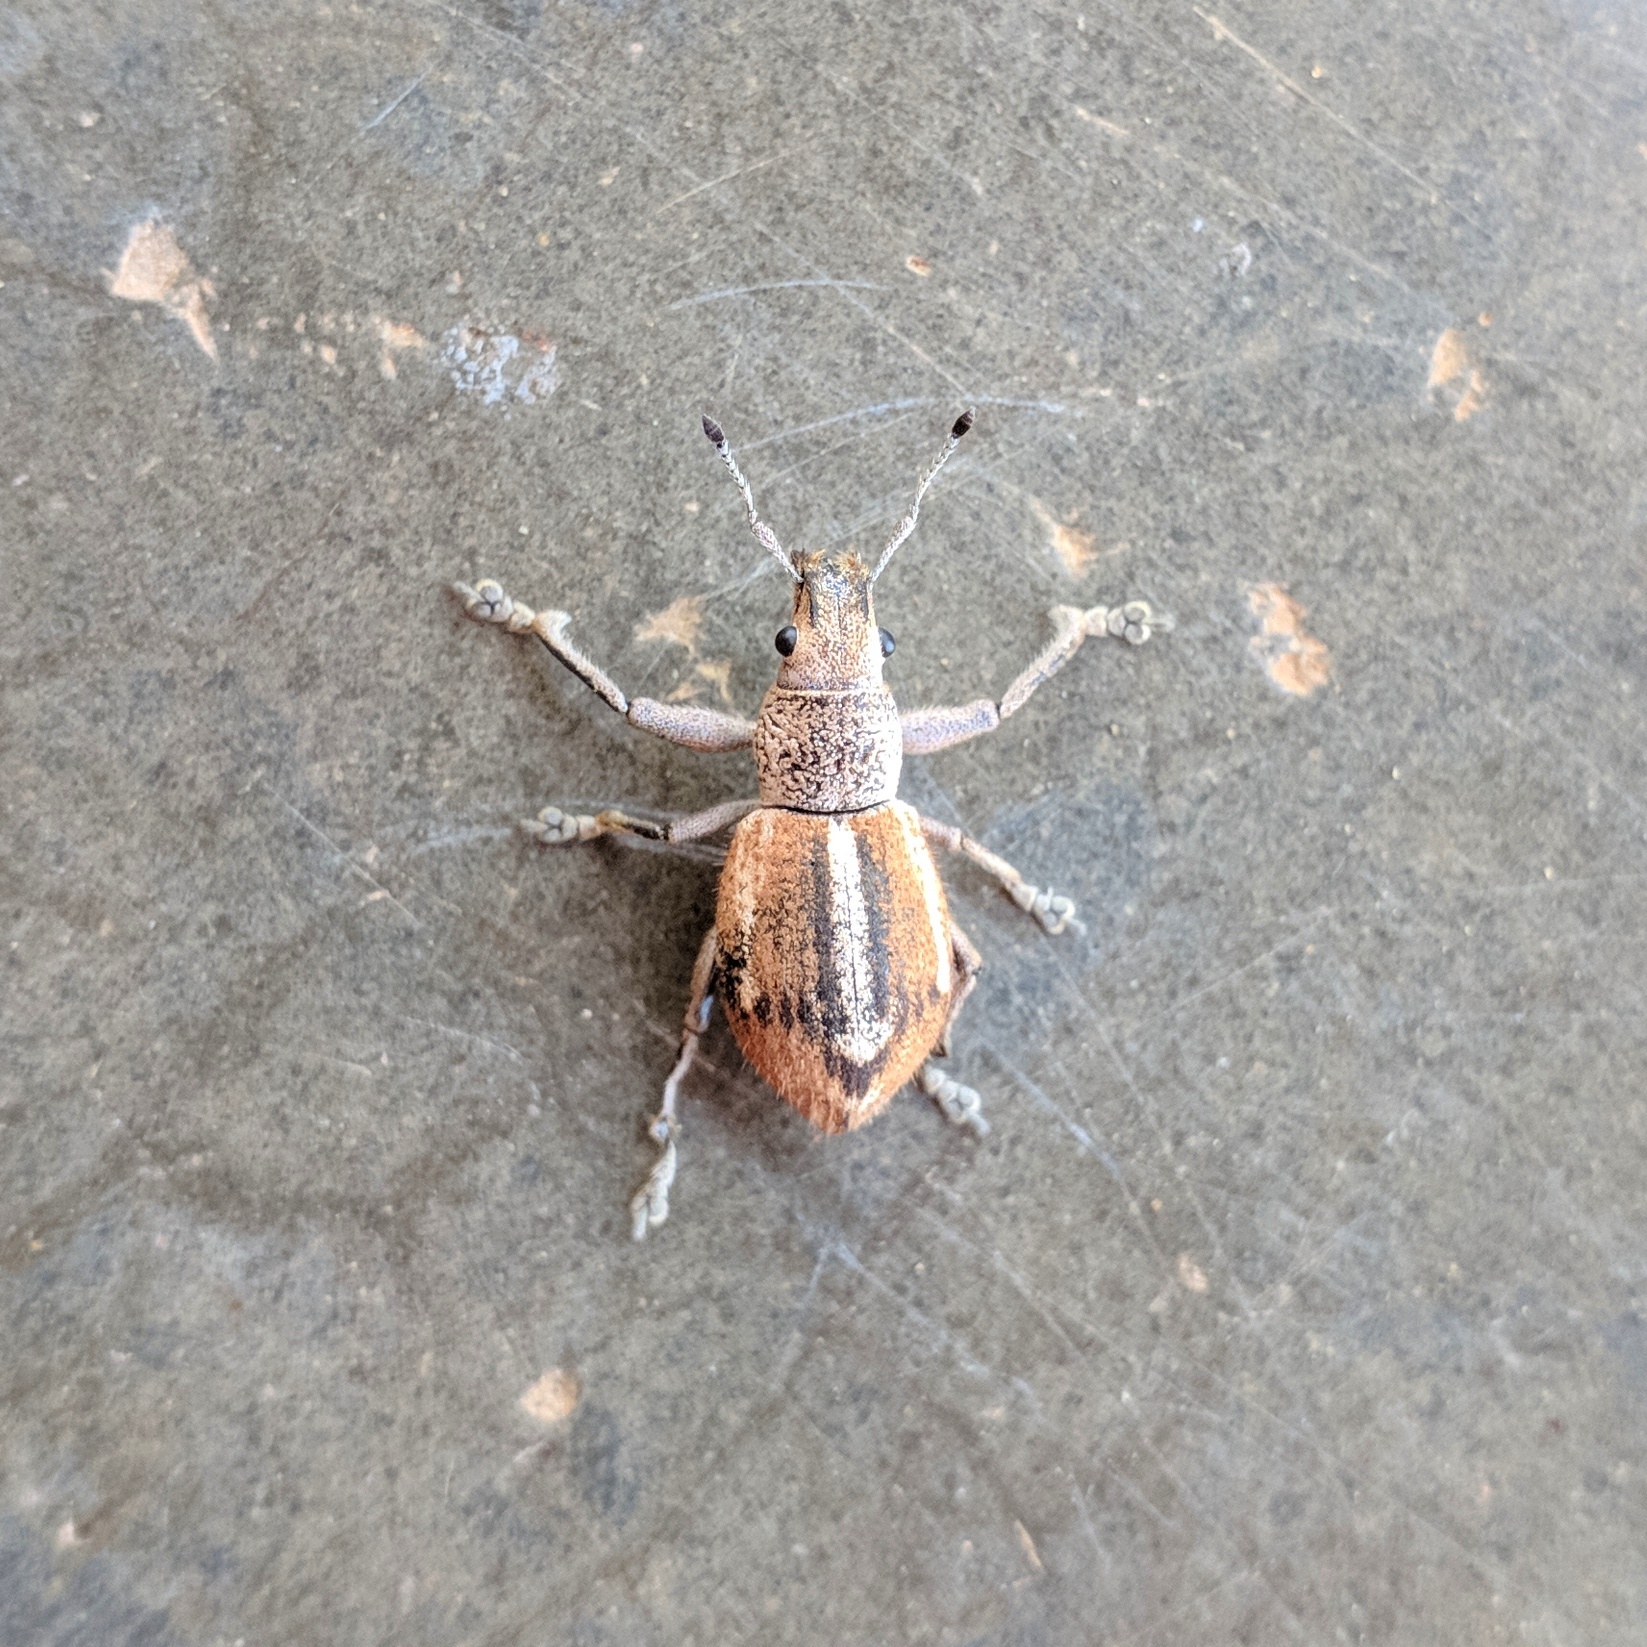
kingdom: Animalia
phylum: Arthropoda
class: Insecta
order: Coleoptera
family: Curculionidae
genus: Naupactus
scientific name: Naupactus glaucus
